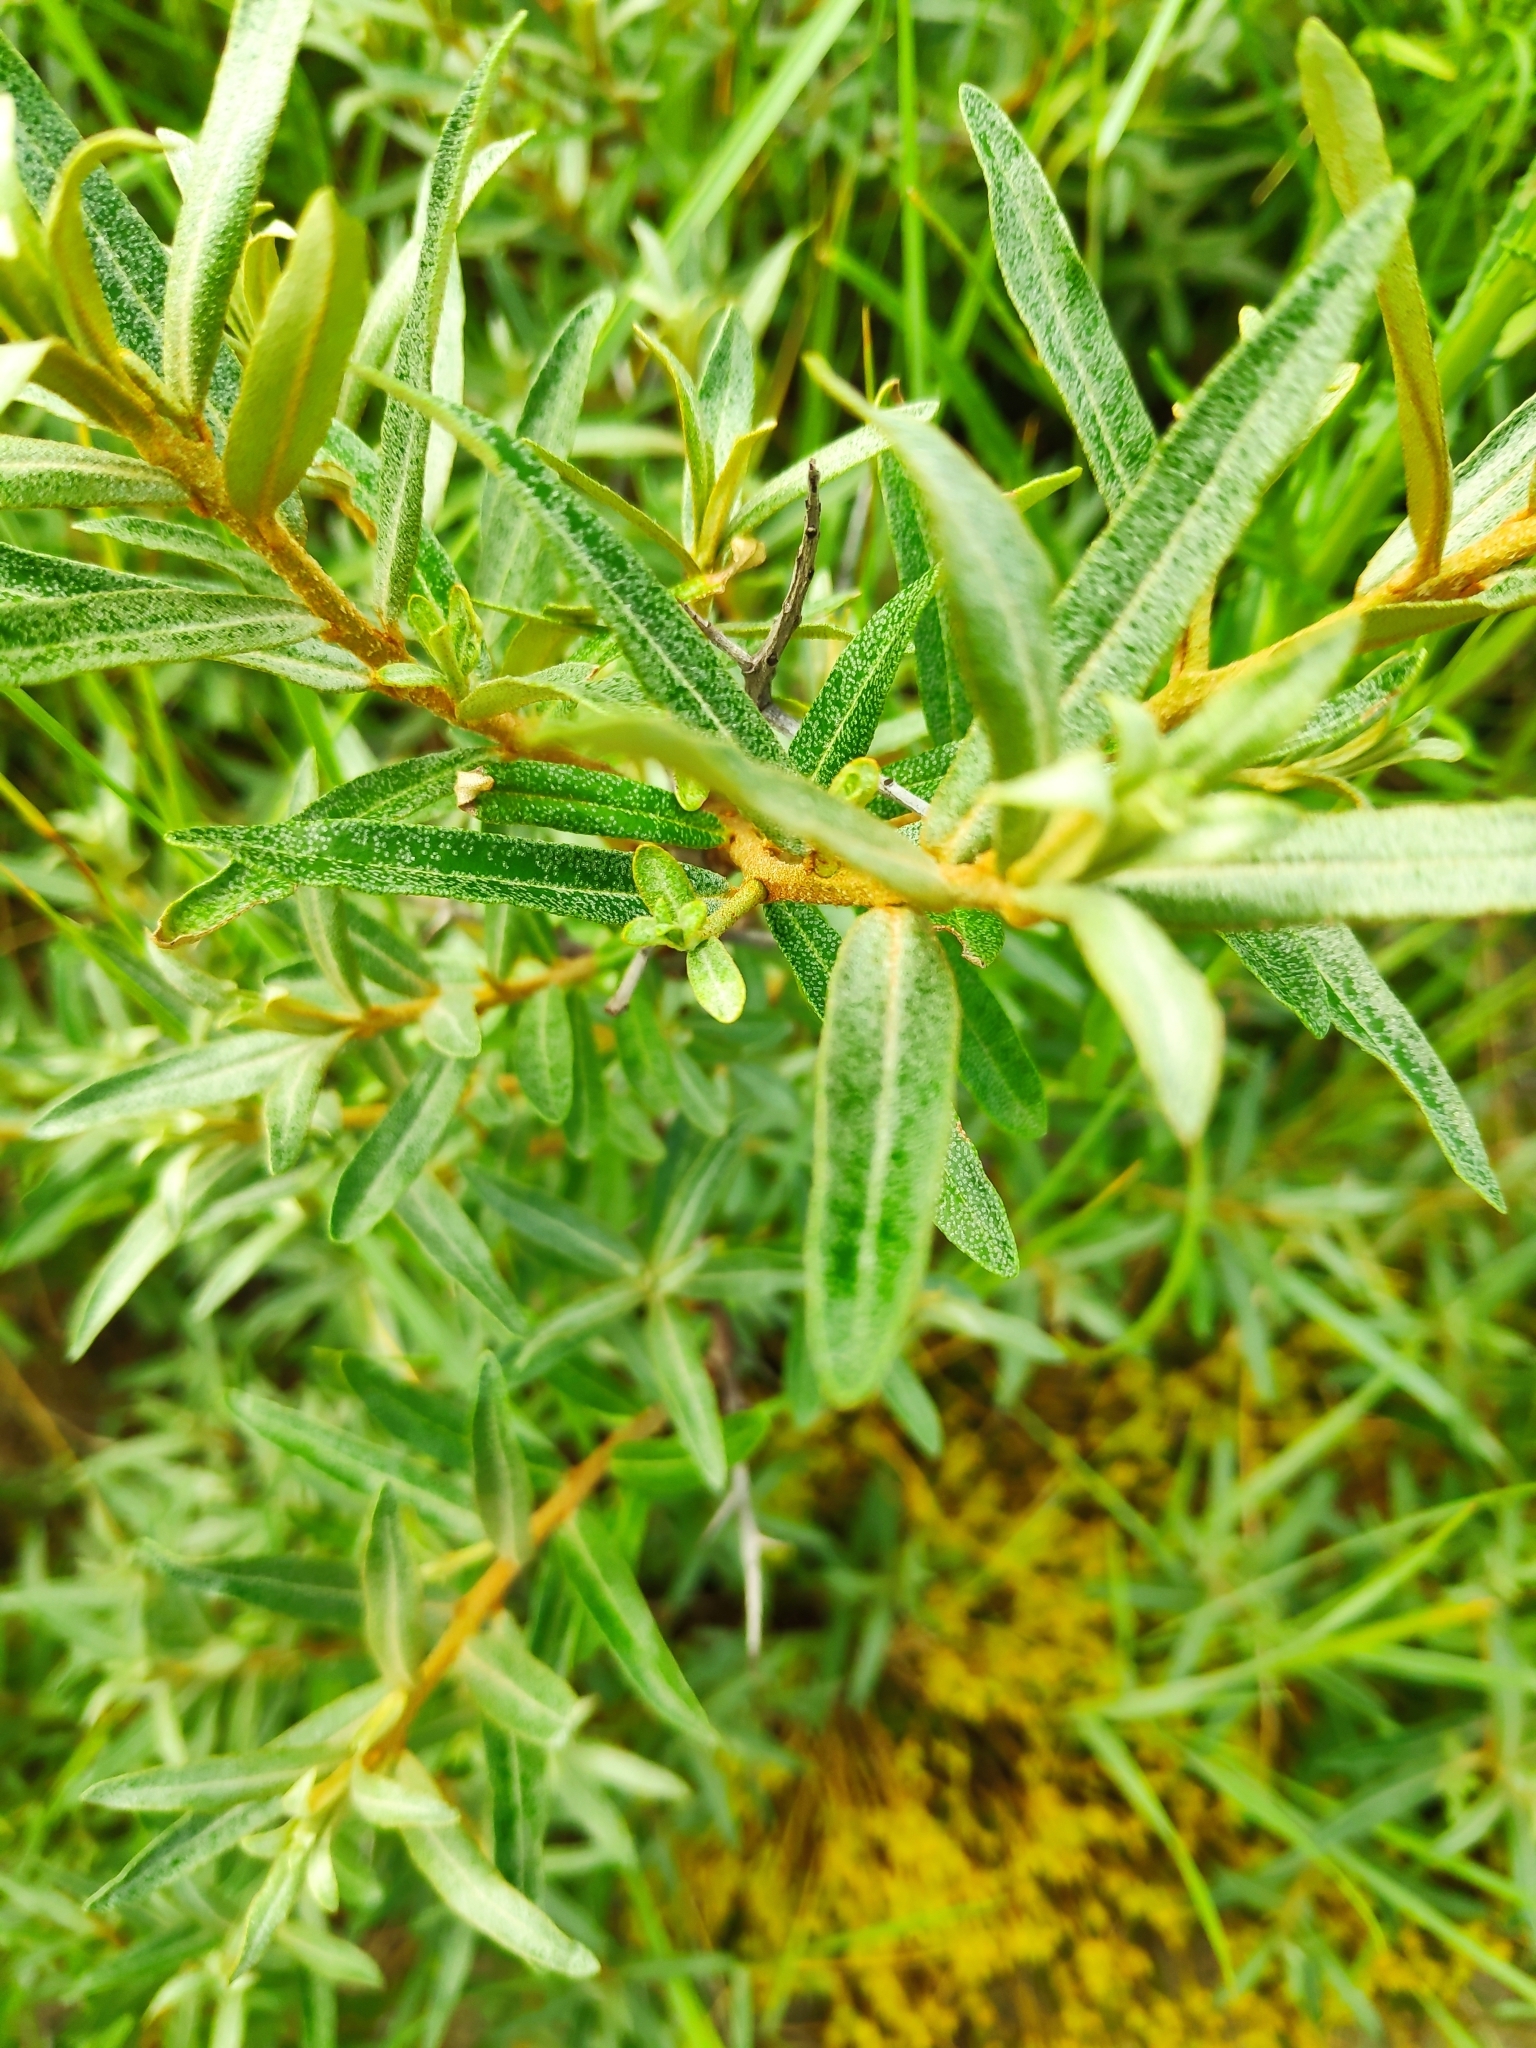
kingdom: Plantae
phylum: Tracheophyta
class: Magnoliopsida
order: Rosales
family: Elaeagnaceae
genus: Hippophae
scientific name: Hippophae rhamnoides
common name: Sea-buckthorn
